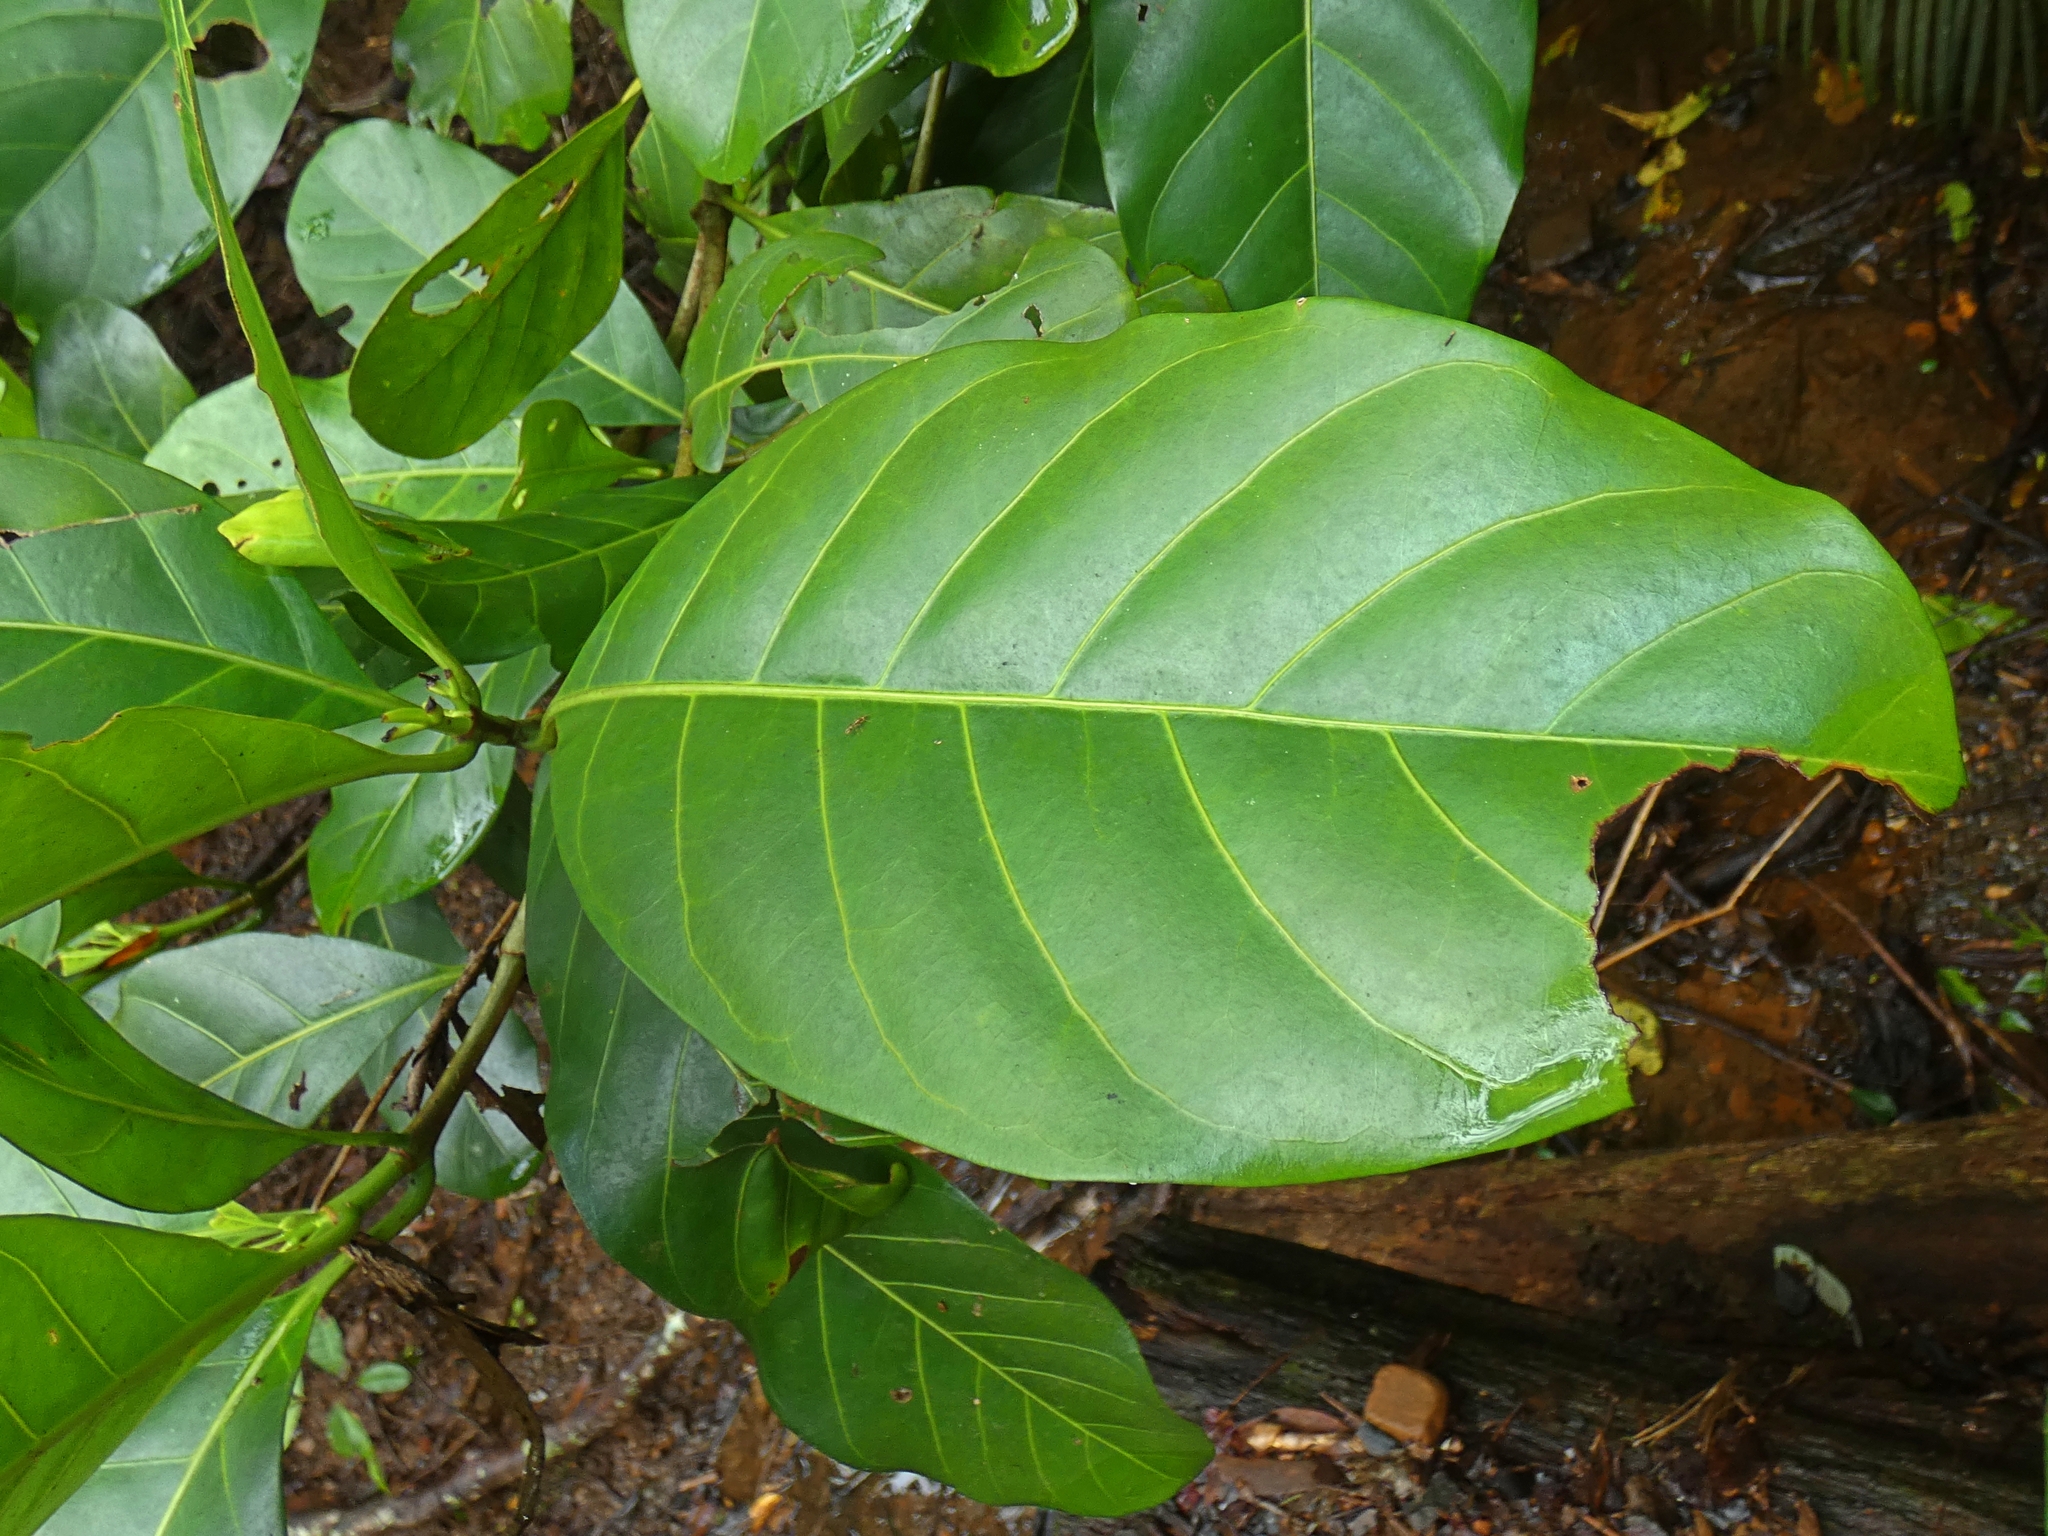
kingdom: Plantae
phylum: Tracheophyta
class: Magnoliopsida
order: Gentianales
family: Rubiaceae
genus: Atractocarpus
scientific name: Atractocarpus fitzalanii
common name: Randia
